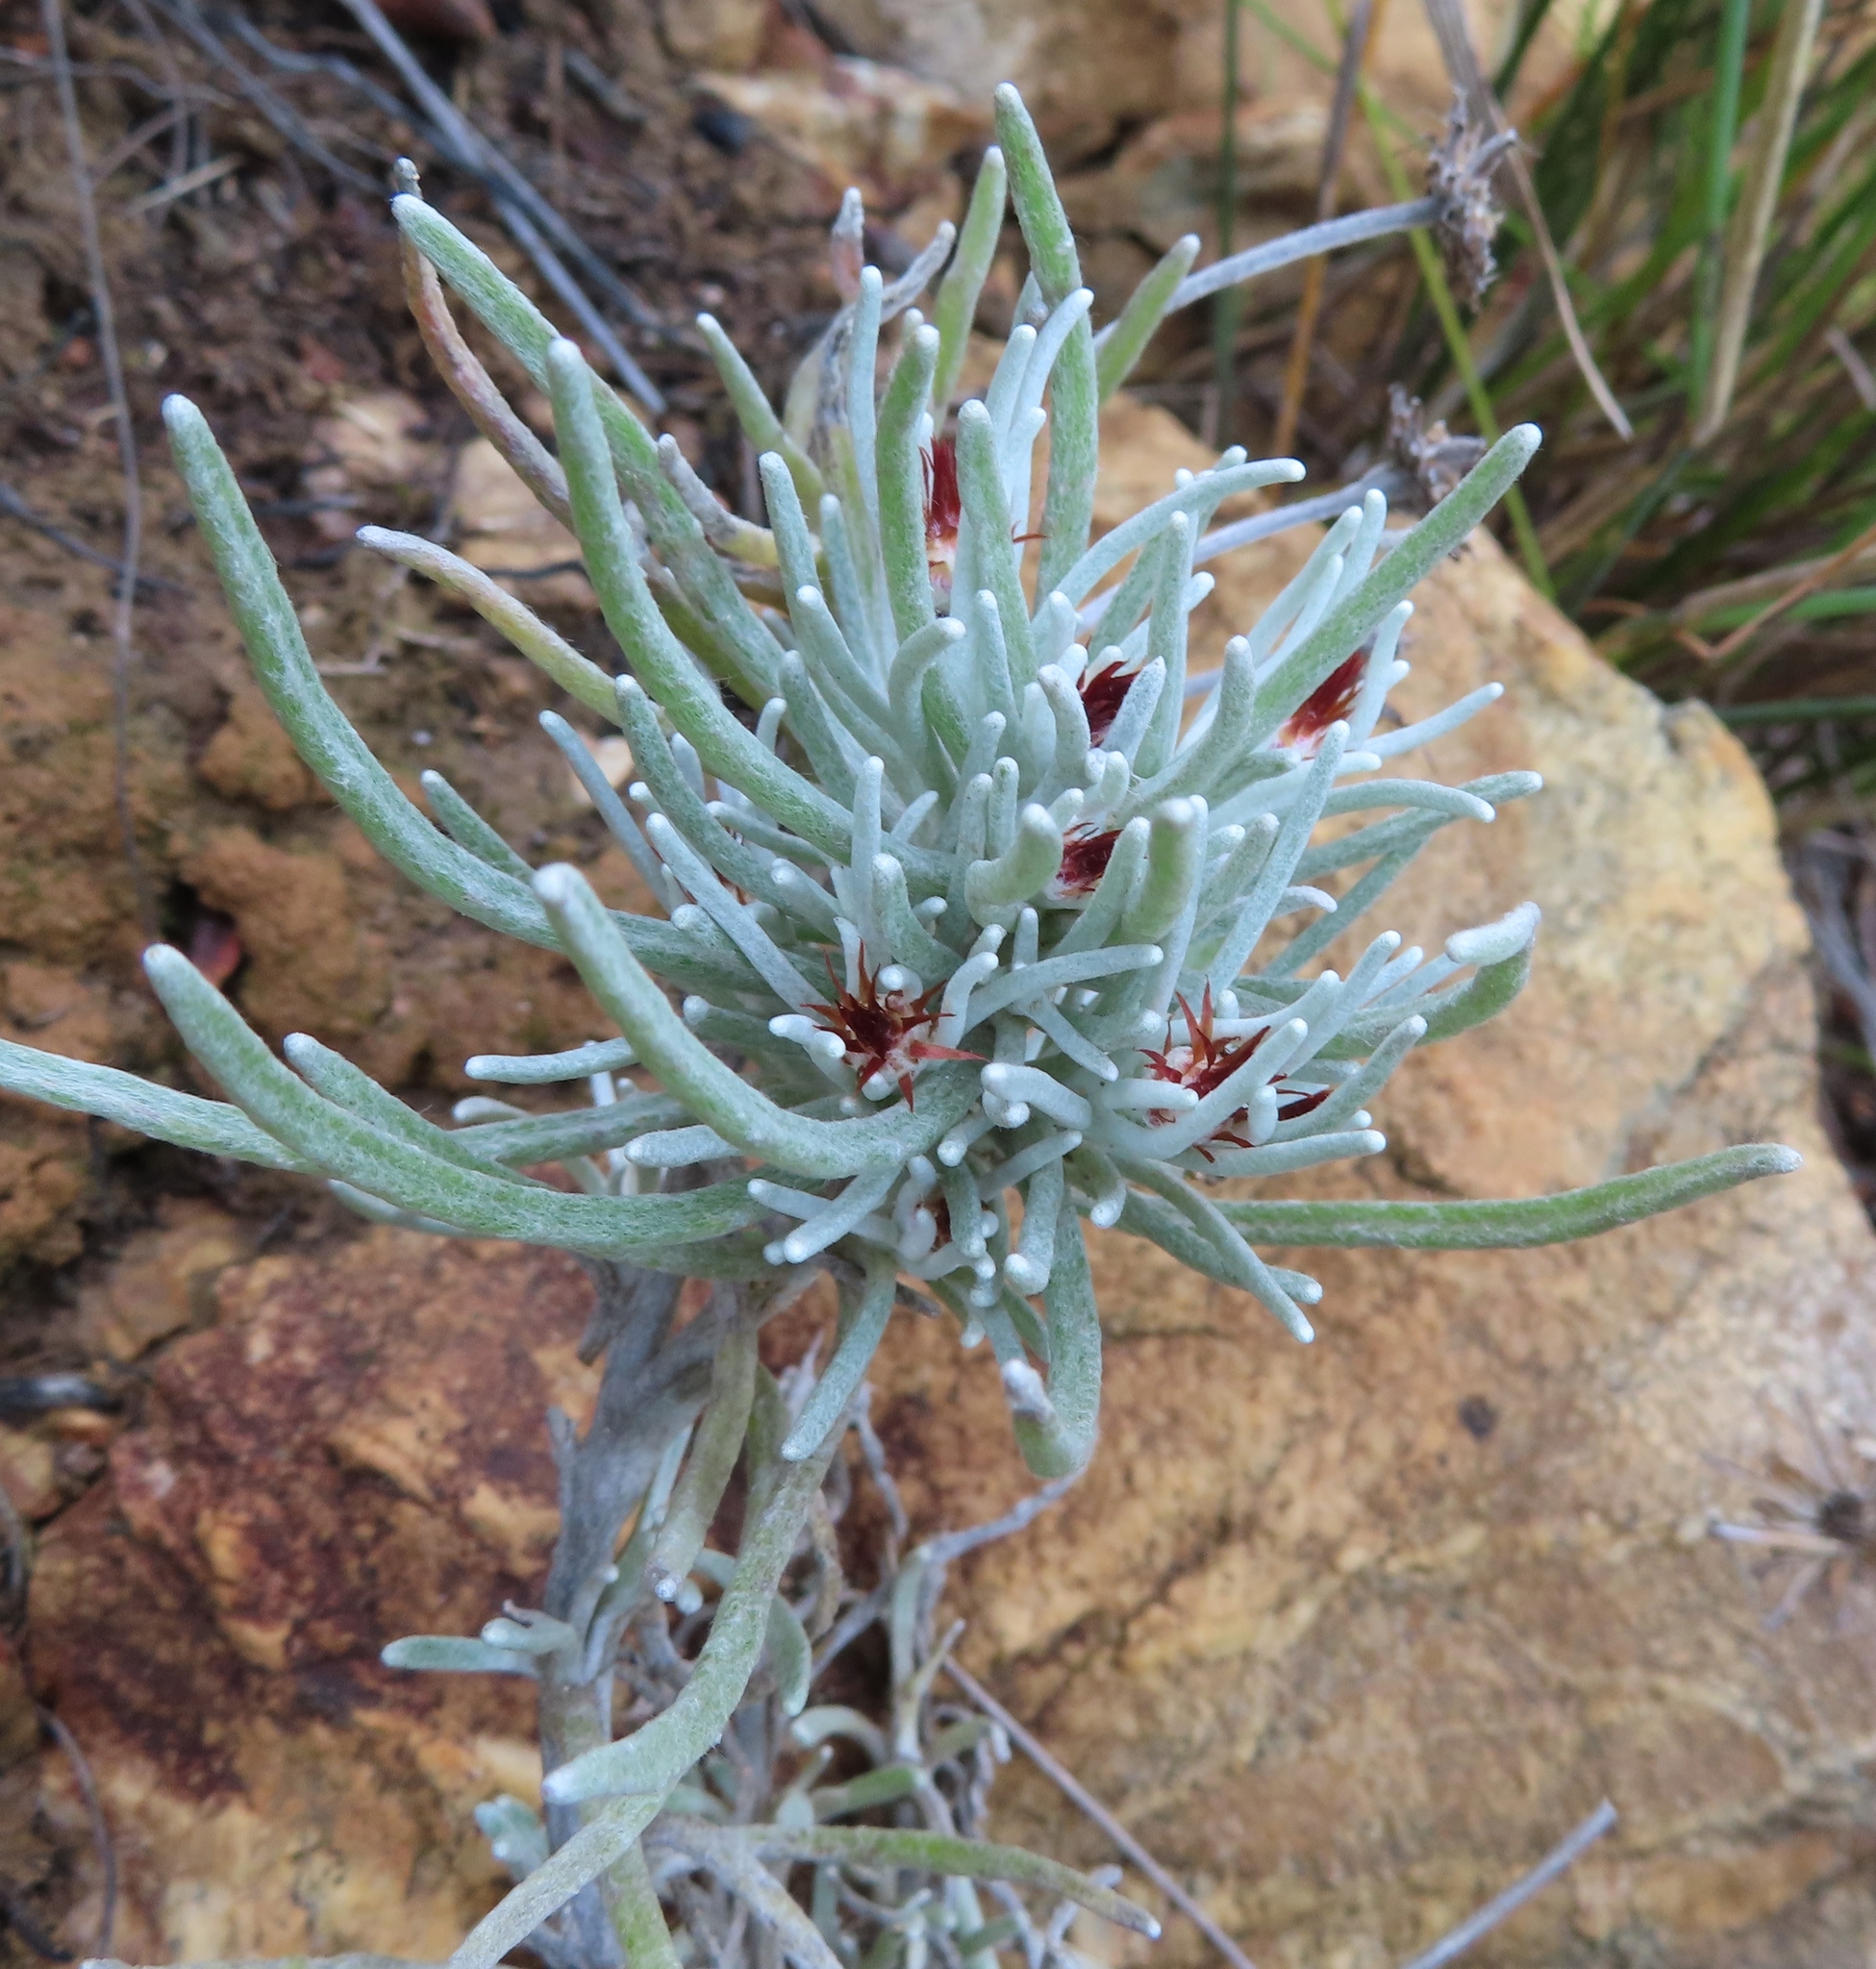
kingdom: Plantae
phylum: Tracheophyta
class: Magnoliopsida
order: Asterales
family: Asteraceae
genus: Syncarpha
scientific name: Syncarpha gnaphaloides
